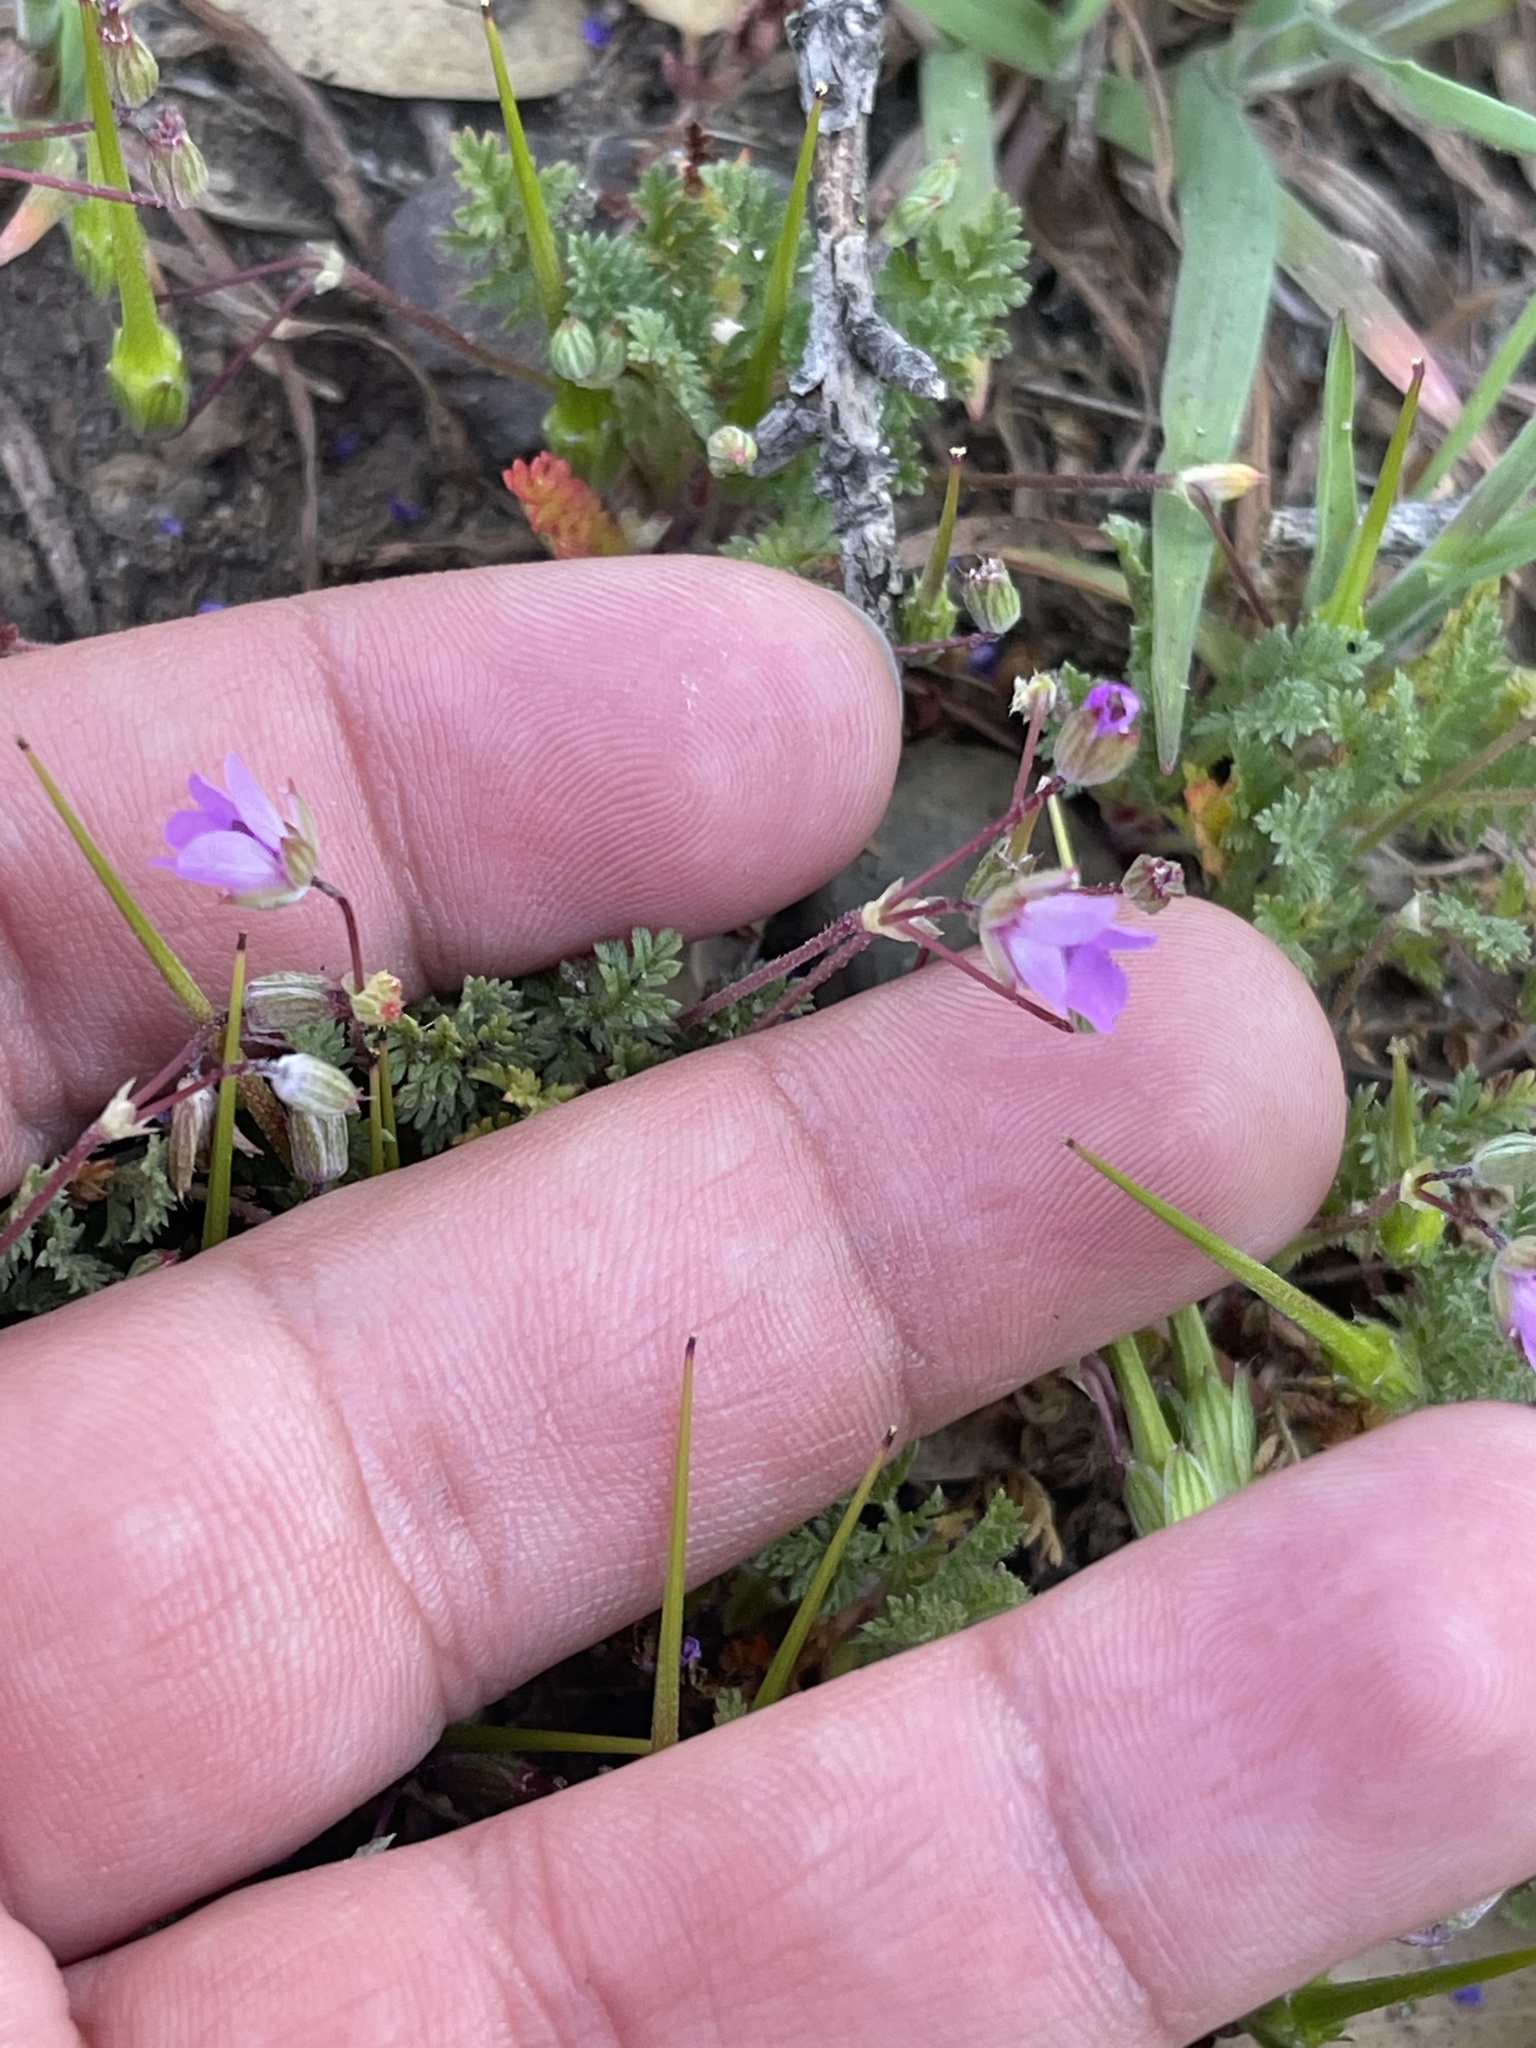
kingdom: Plantae
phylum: Tracheophyta
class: Magnoliopsida
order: Geraniales
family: Geraniaceae
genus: Erodium
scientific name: Erodium cicutarium
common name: Common stork's-bill
